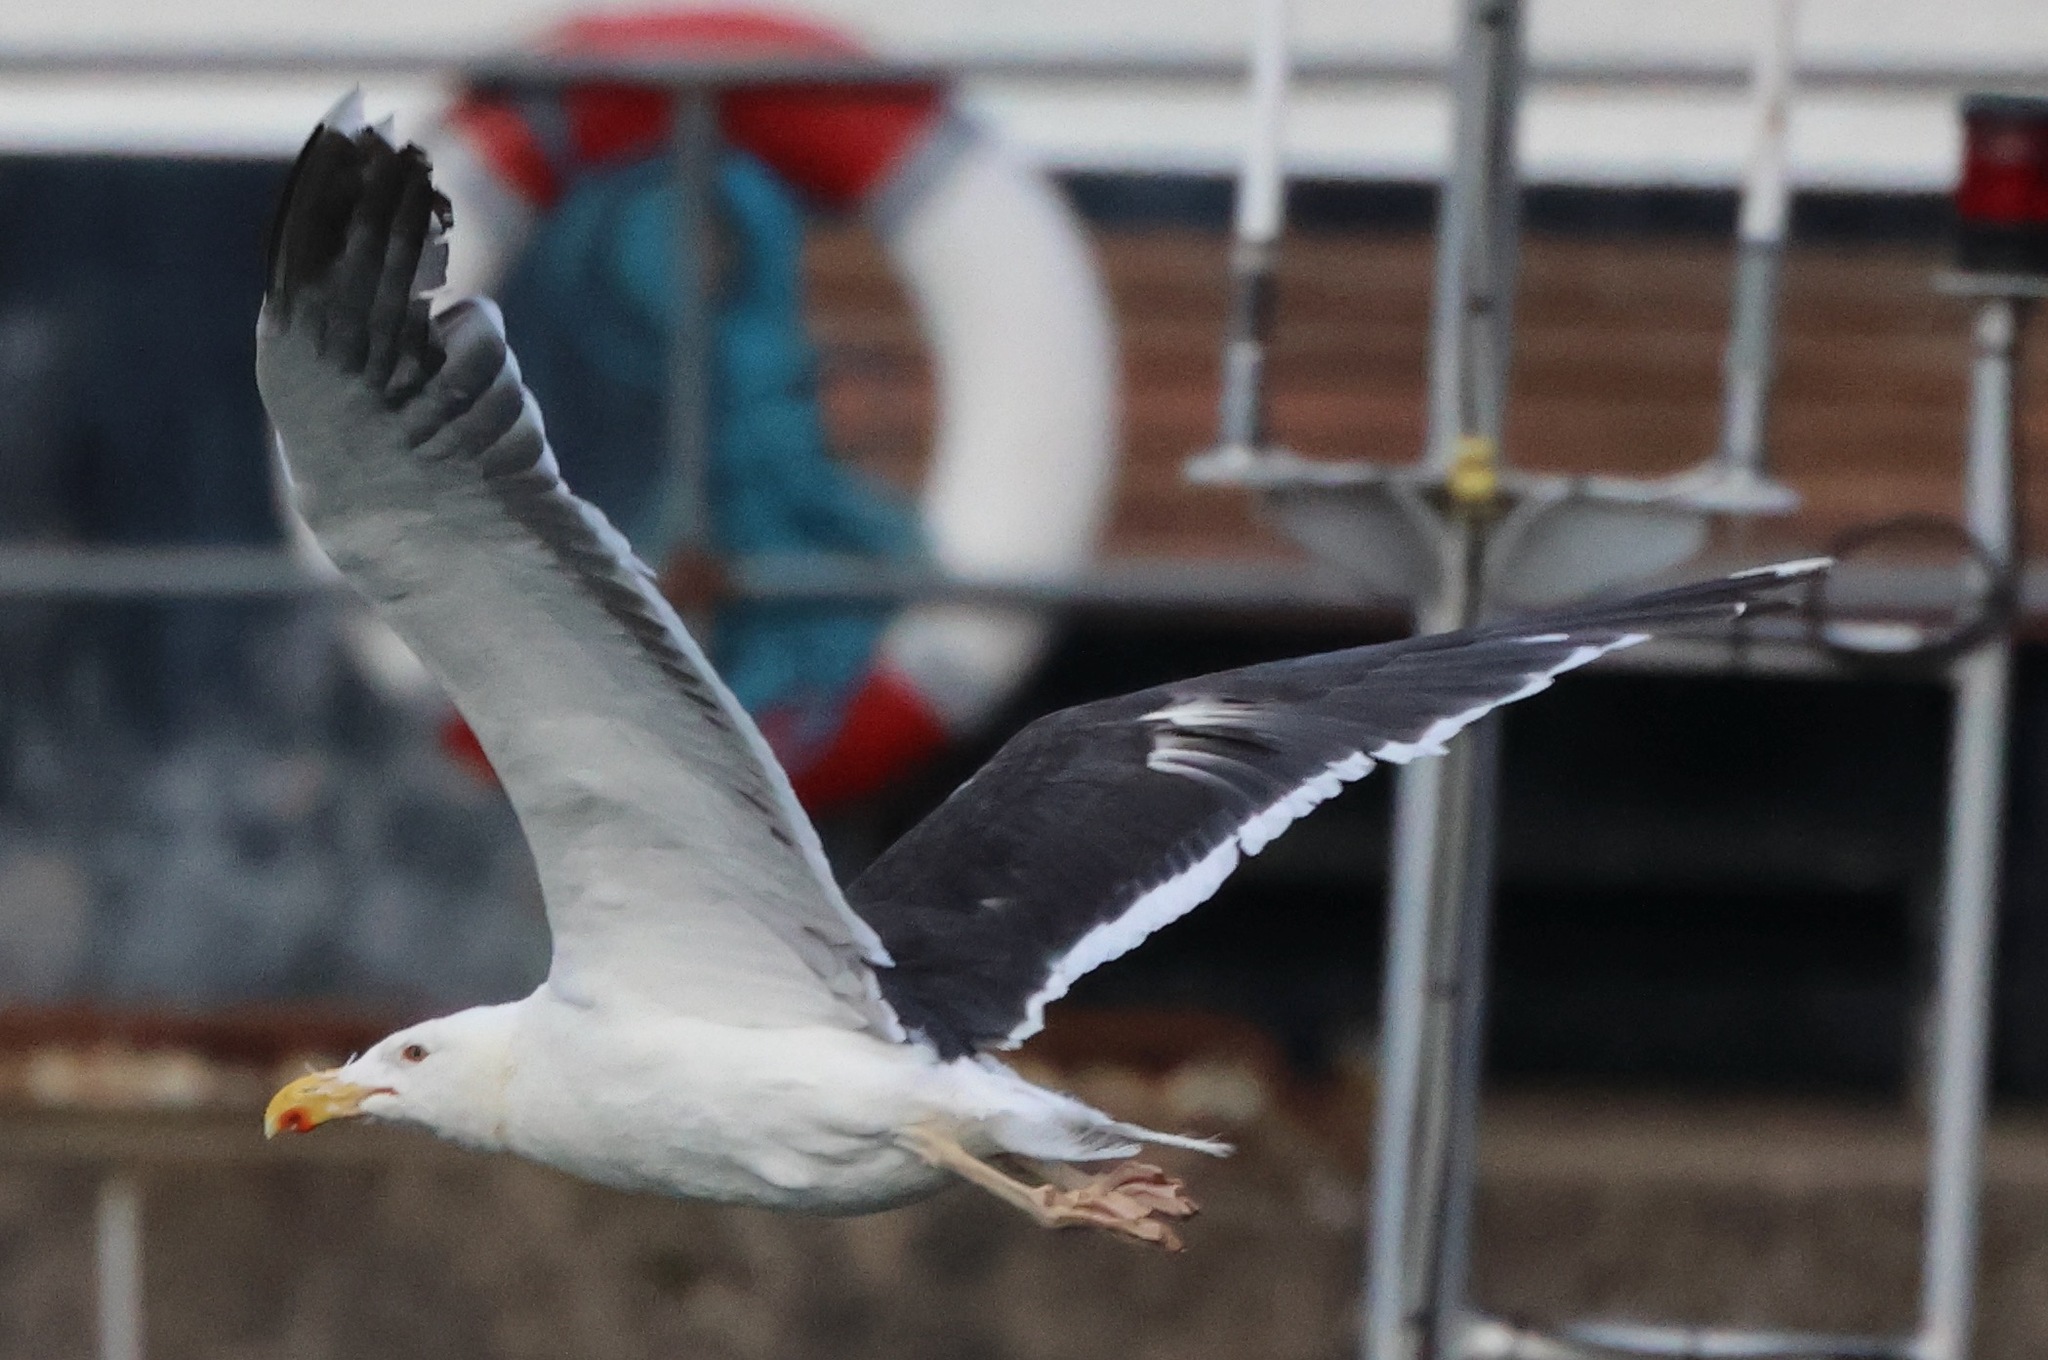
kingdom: Animalia
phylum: Chordata
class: Aves
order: Charadriiformes
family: Laridae
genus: Larus
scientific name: Larus marinus
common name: Great black-backed gull
